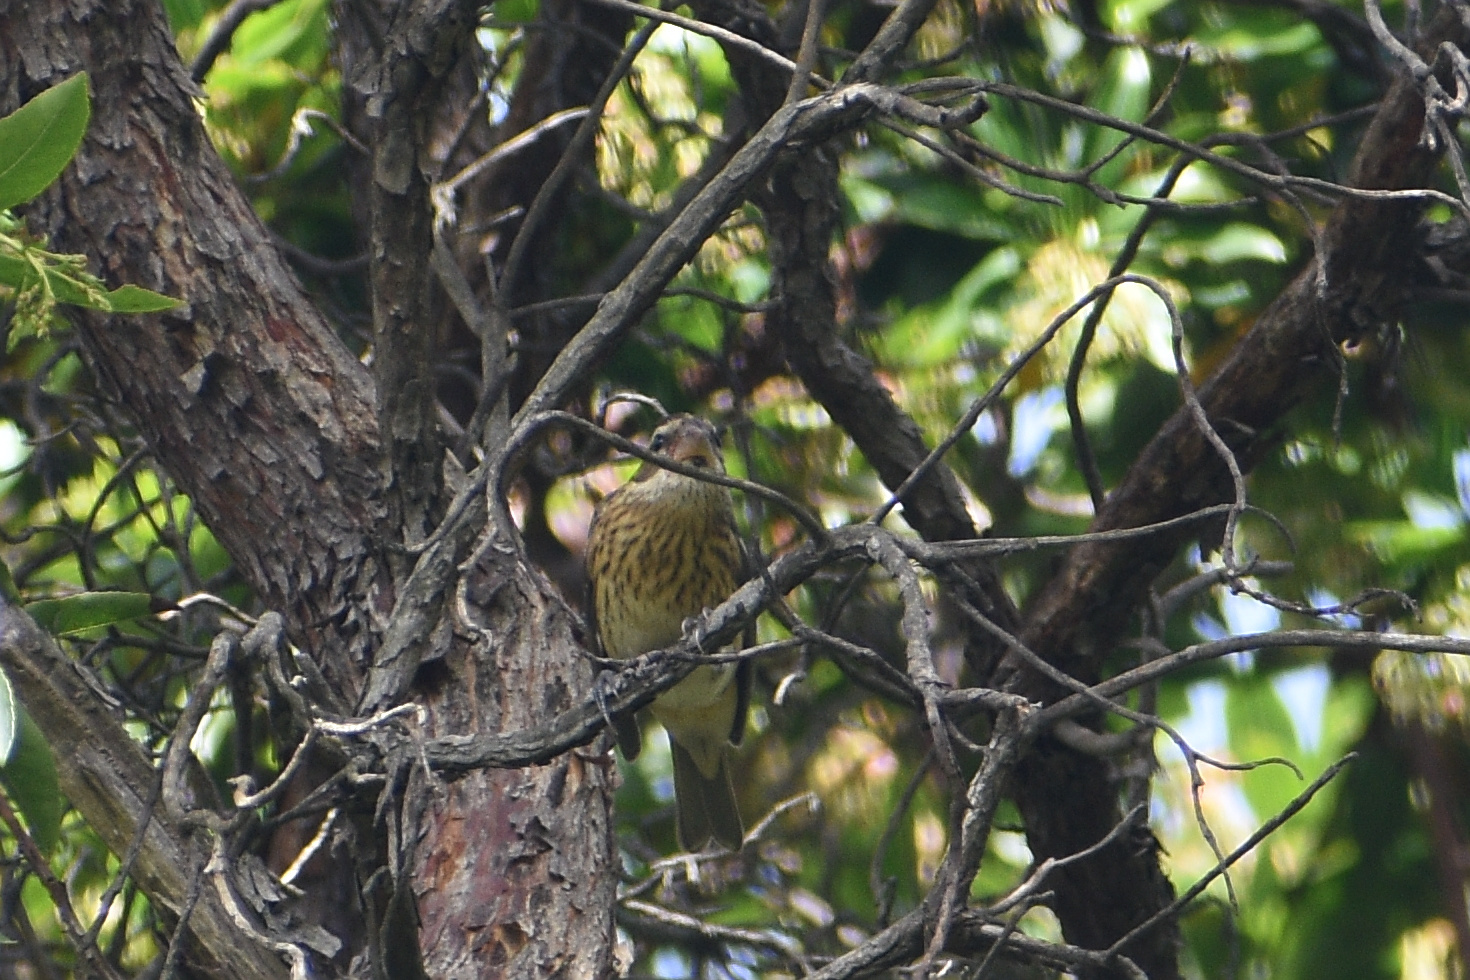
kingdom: Animalia
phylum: Chordata
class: Aves
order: Passeriformes
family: Cardinalidae
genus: Pheucticus
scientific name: Pheucticus ludovicianus
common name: Rose-breasted grosbeak
